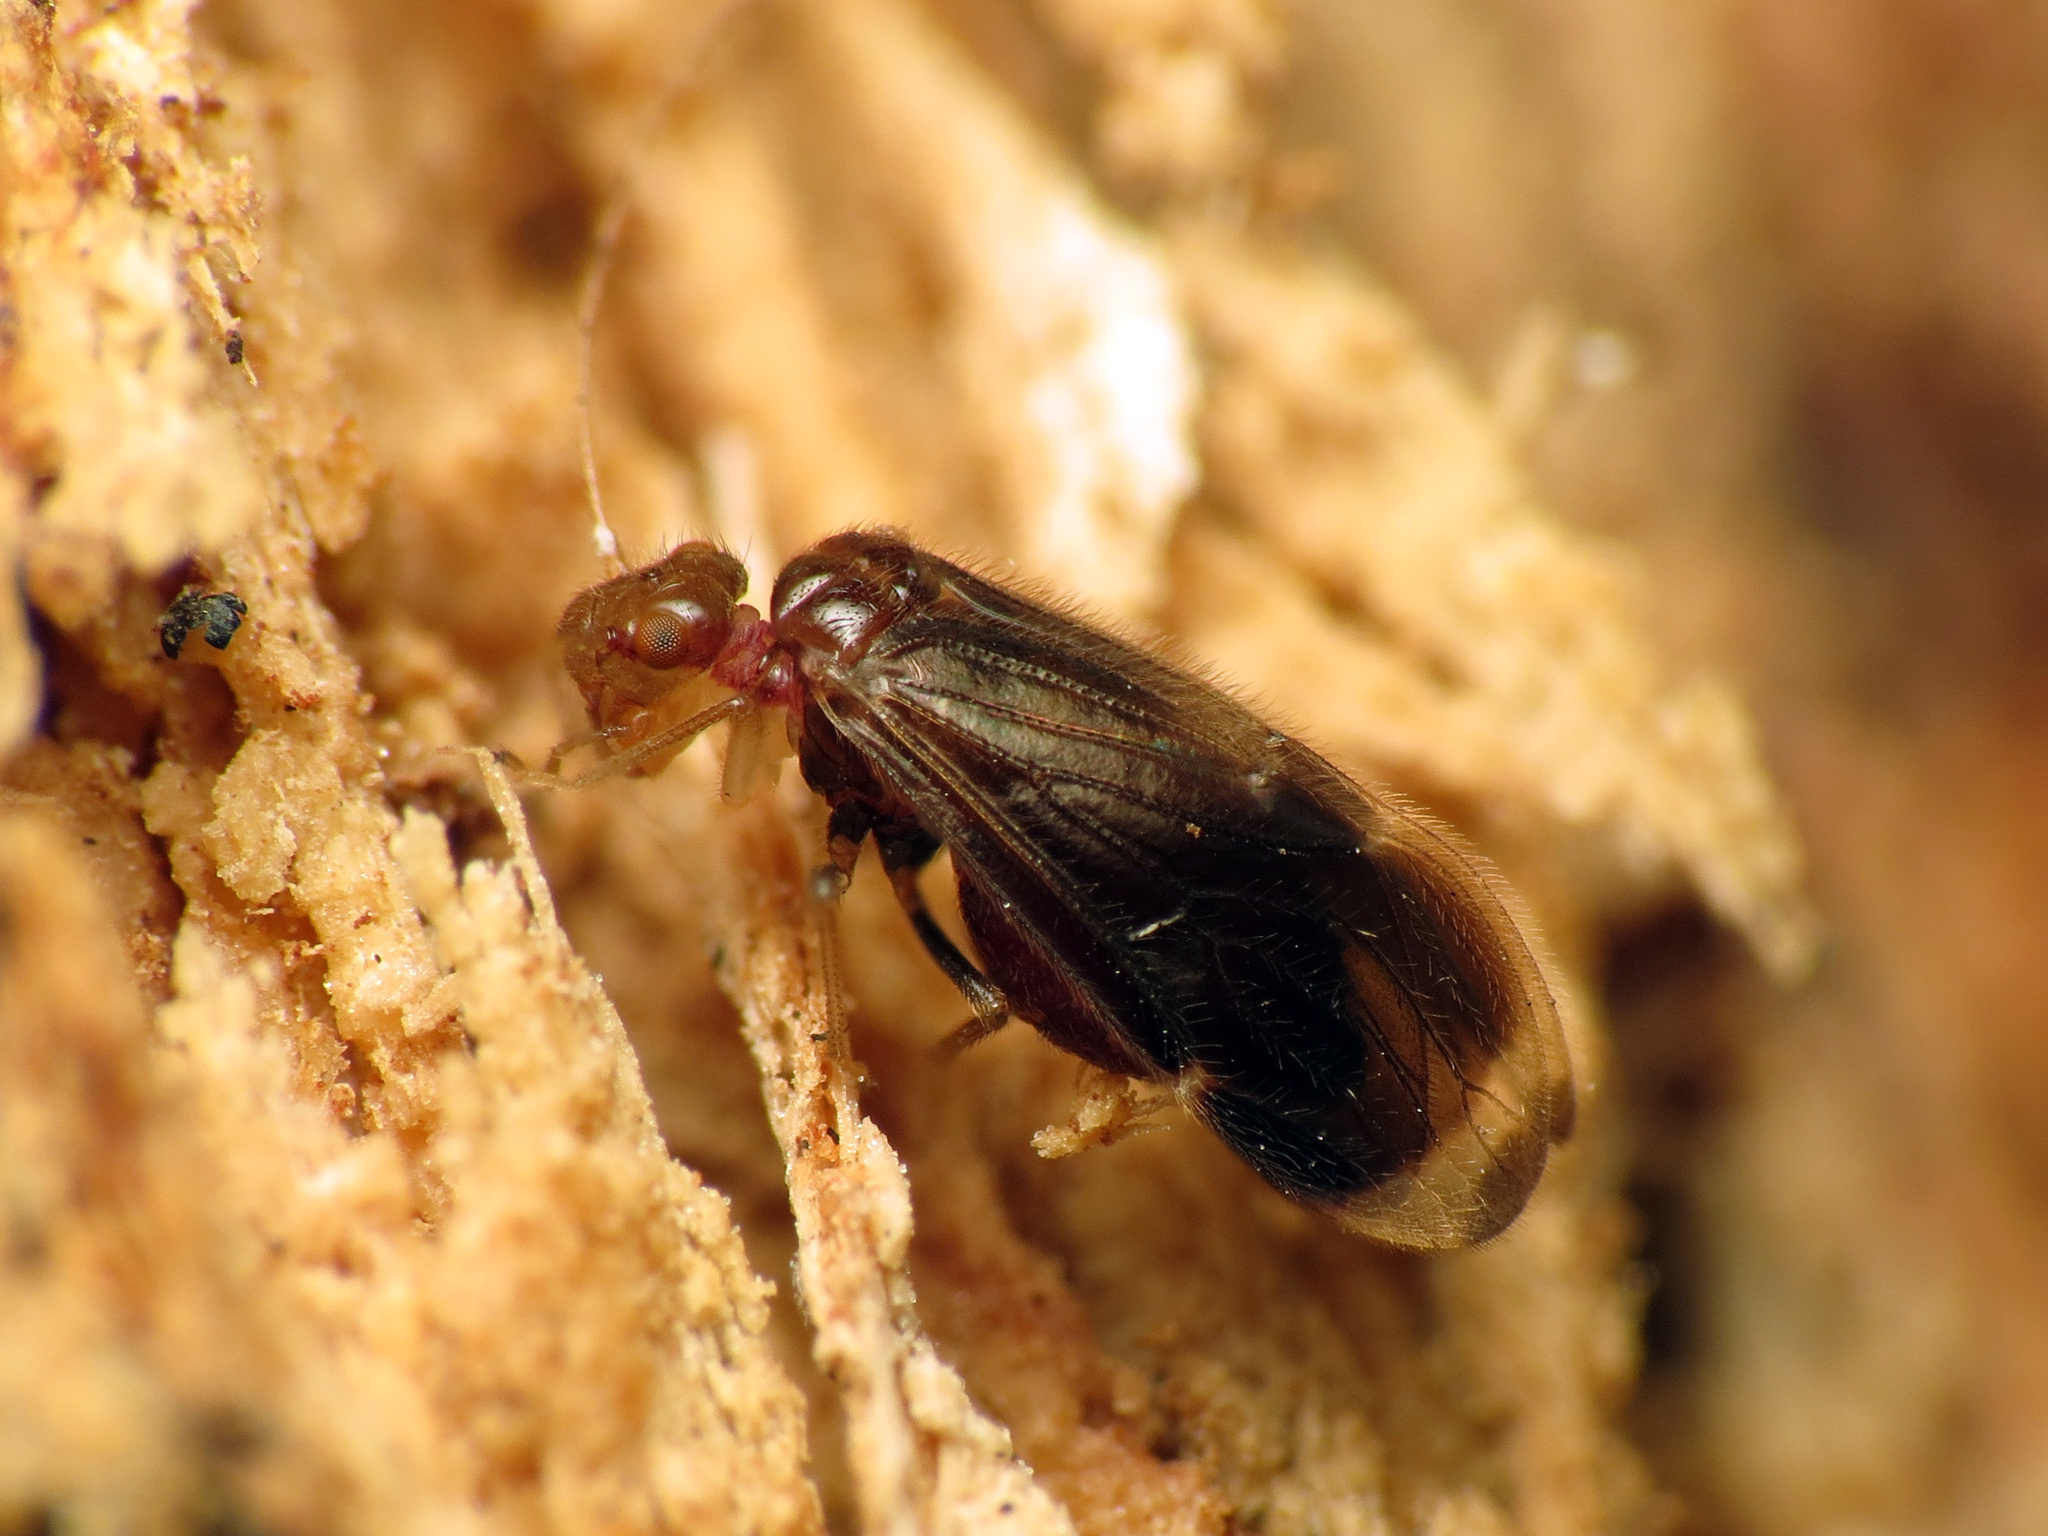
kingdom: Animalia
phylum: Arthropoda
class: Insecta
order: Psocodea
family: Amphipsocidae
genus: Polypsocus
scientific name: Polypsocus corruptus
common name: Corrupt barklouse
